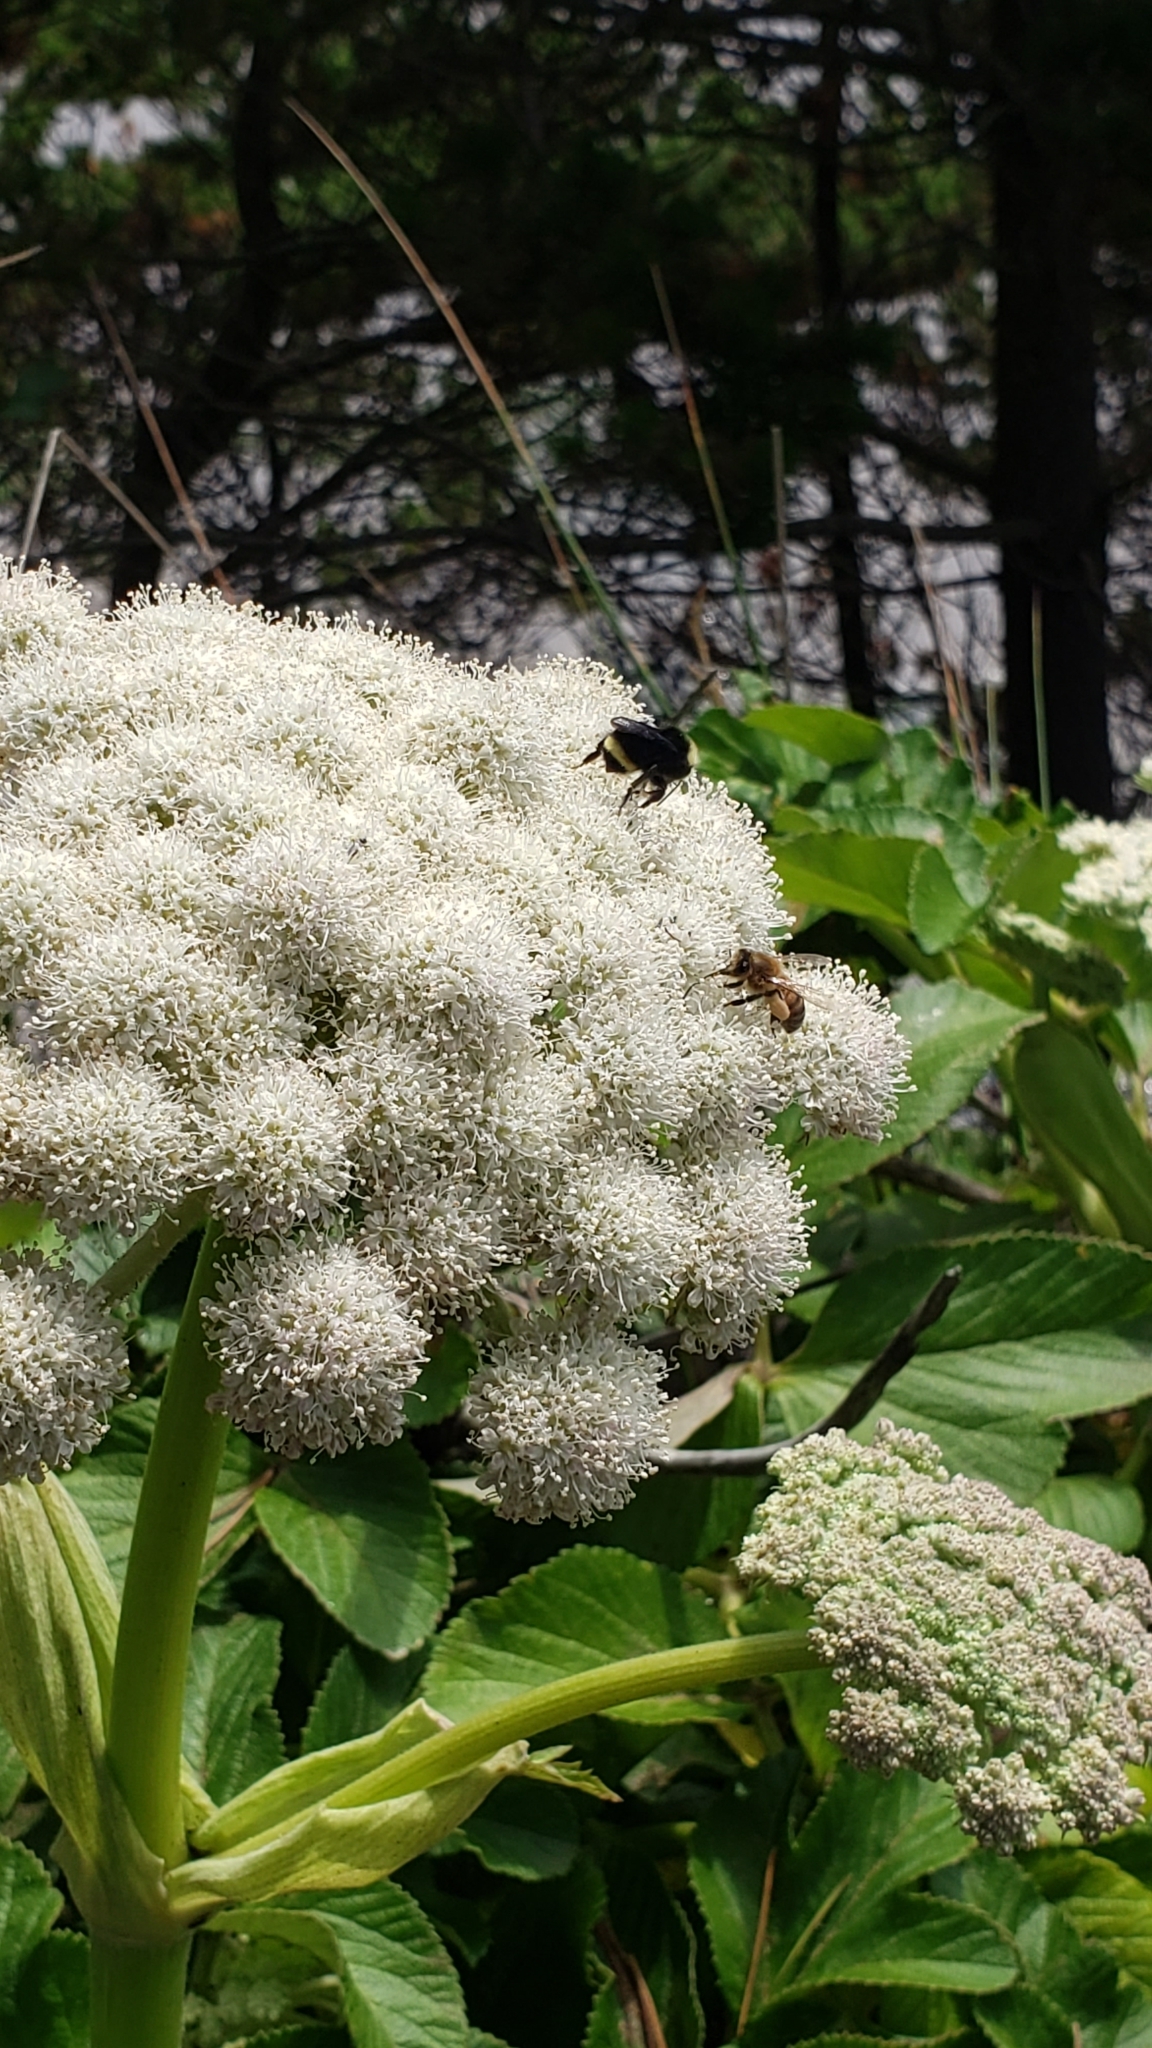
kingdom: Plantae
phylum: Tracheophyta
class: Magnoliopsida
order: Apiales
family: Apiaceae
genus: Angelica
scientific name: Angelica hendersonii
